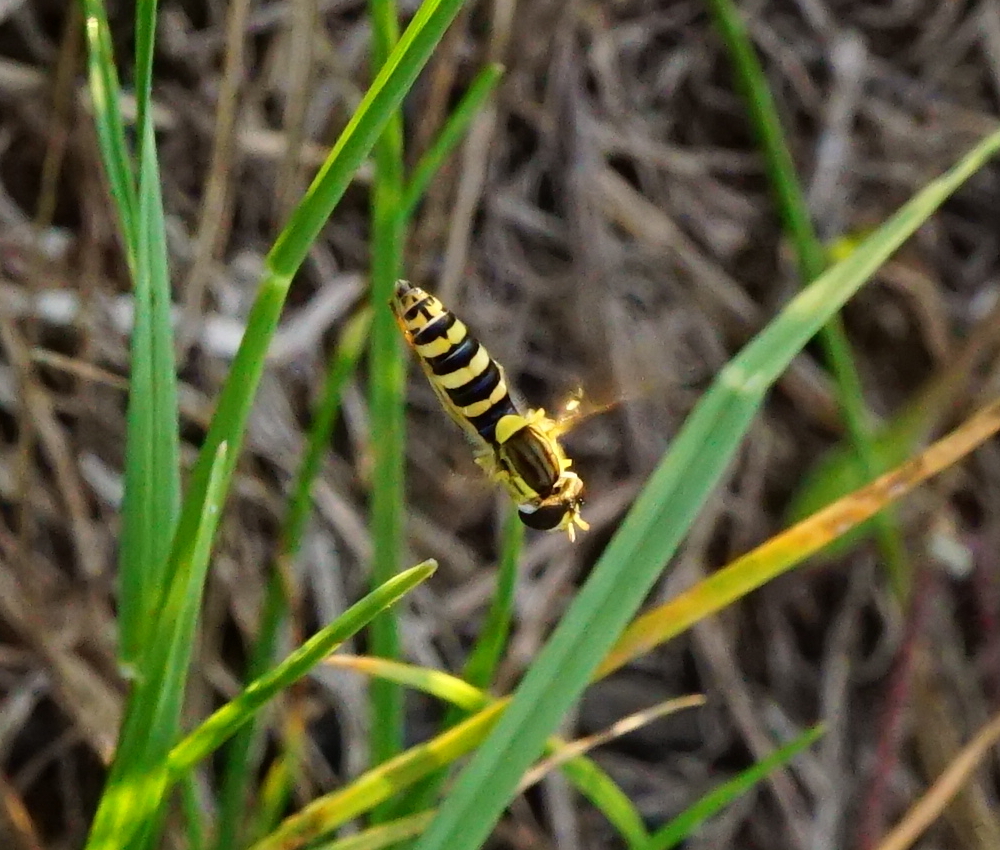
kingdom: Animalia
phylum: Arthropoda
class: Insecta
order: Diptera
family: Syrphidae
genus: Sphaerophoria
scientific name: Sphaerophoria
